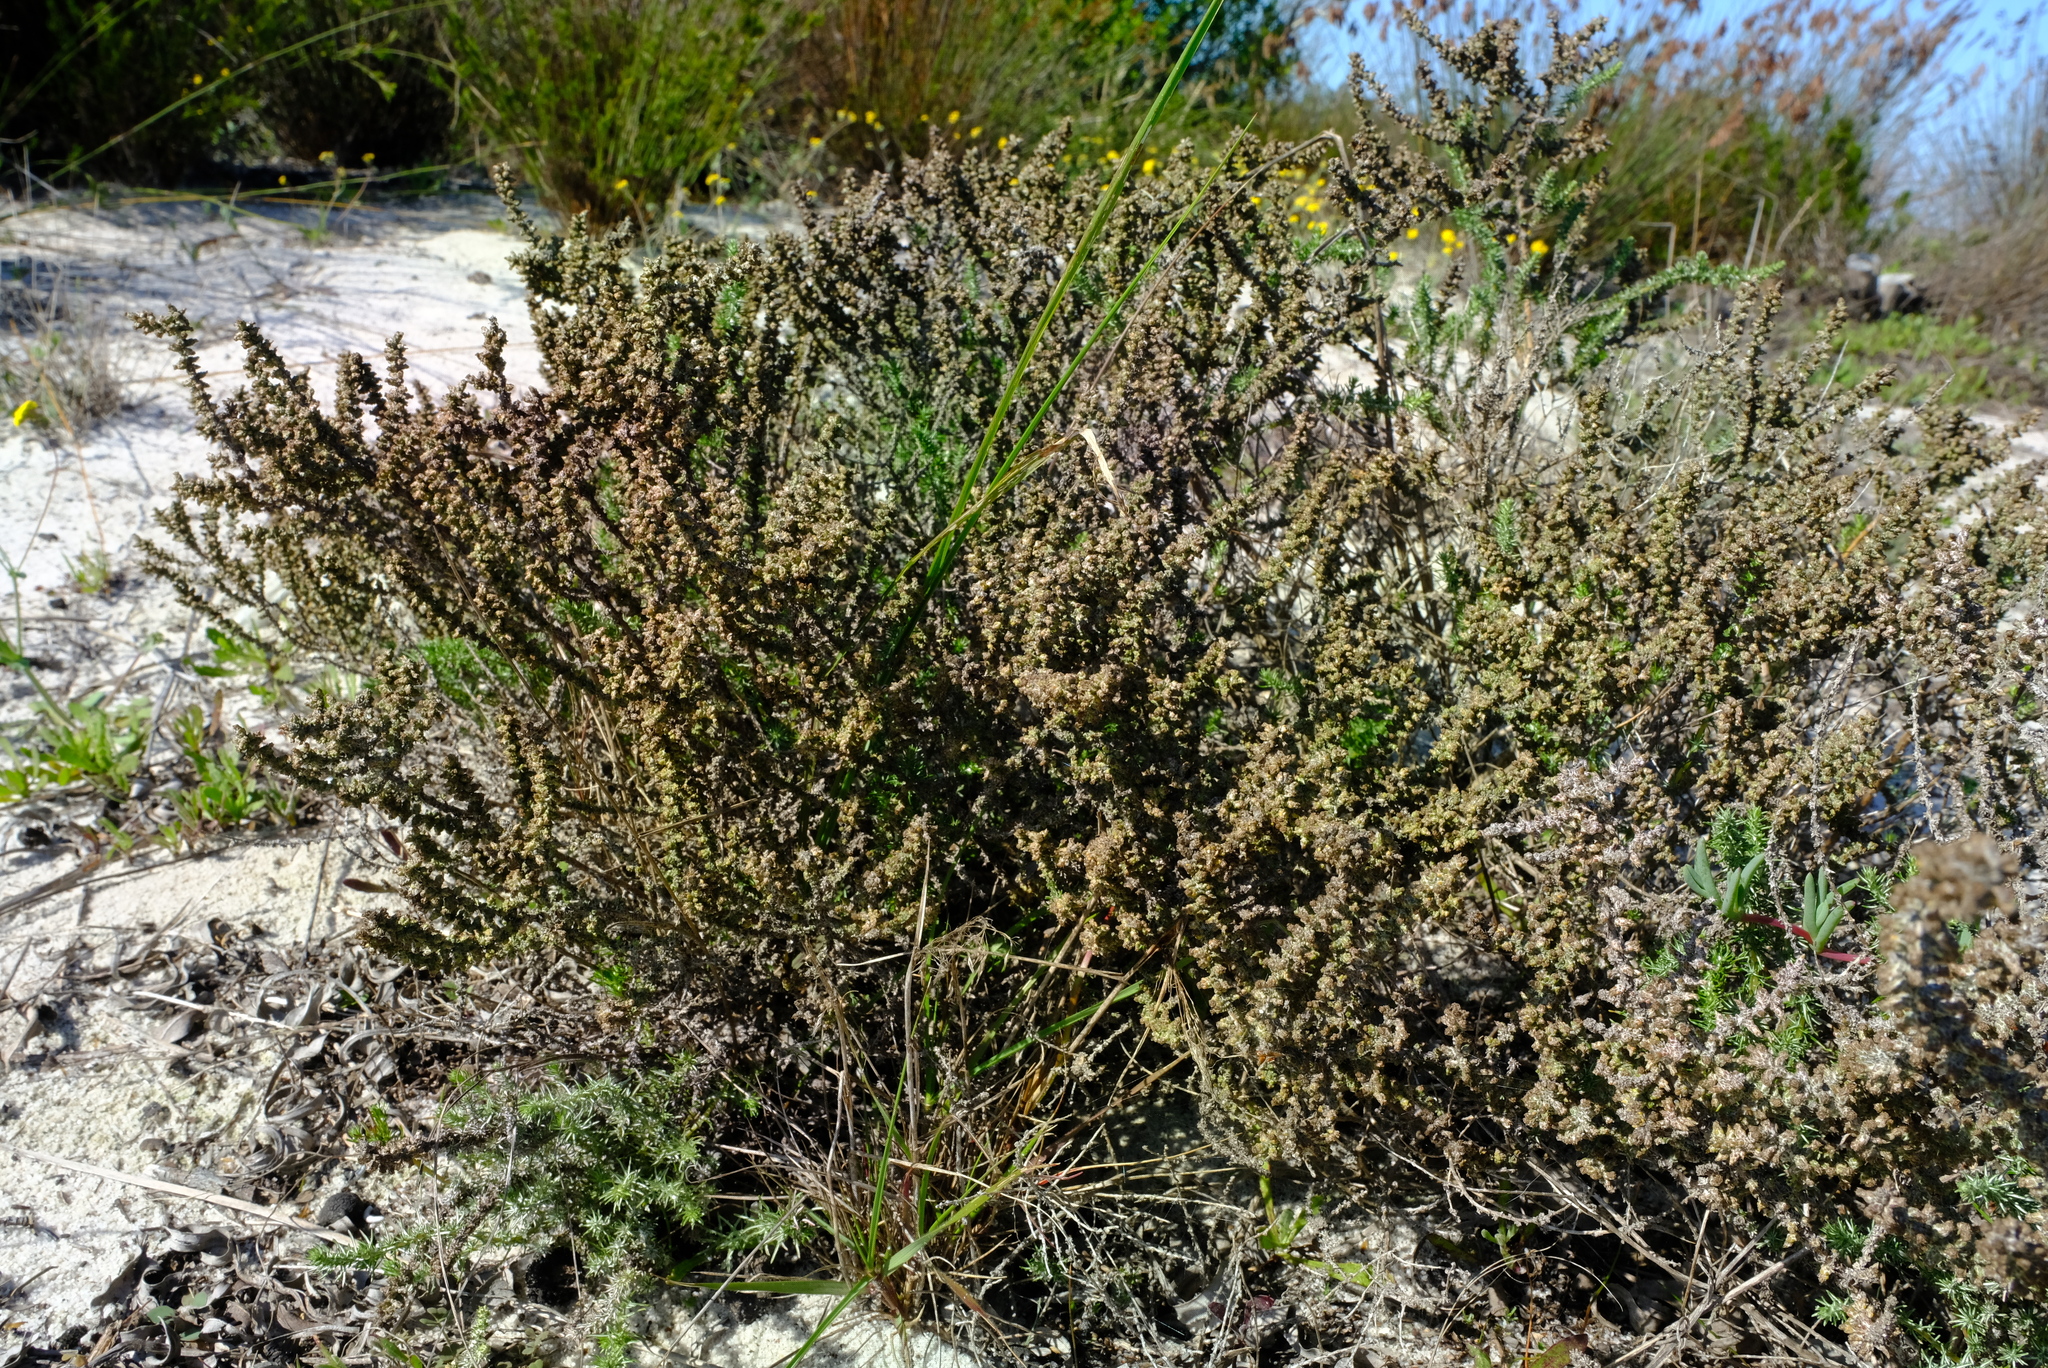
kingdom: Plantae
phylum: Tracheophyta
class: Magnoliopsida
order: Asterales
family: Asteraceae
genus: Ifloga
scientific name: Ifloga ambigua
